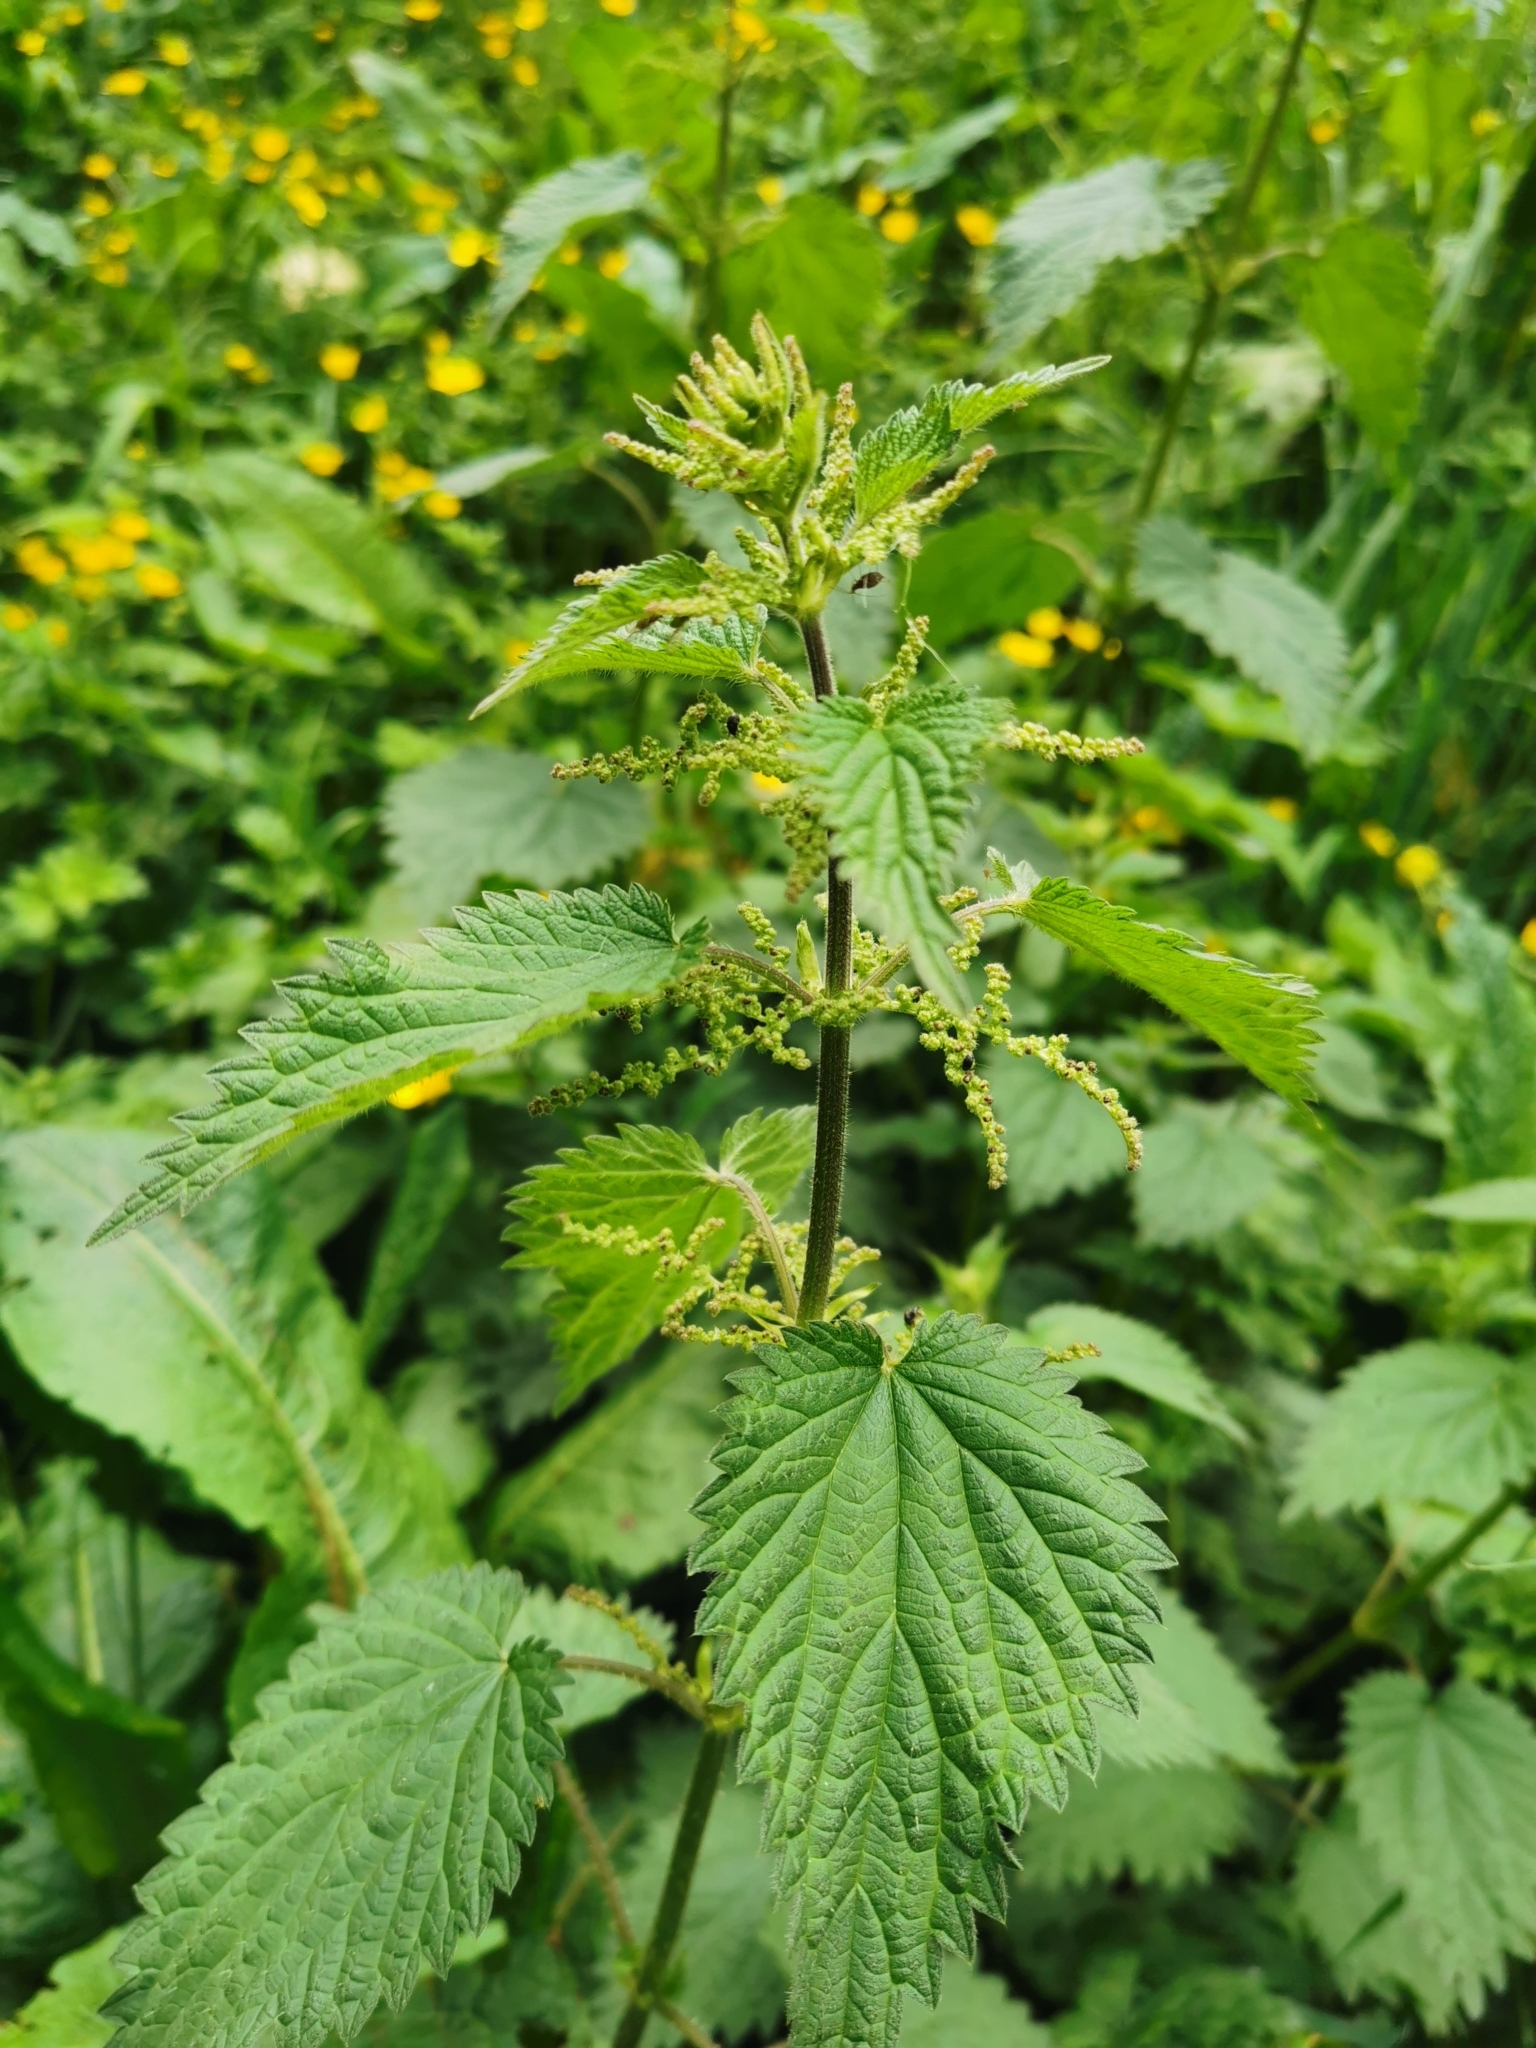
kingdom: Plantae
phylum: Tracheophyta
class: Magnoliopsida
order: Rosales
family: Urticaceae
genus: Urtica
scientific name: Urtica dioica
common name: Common nettle
